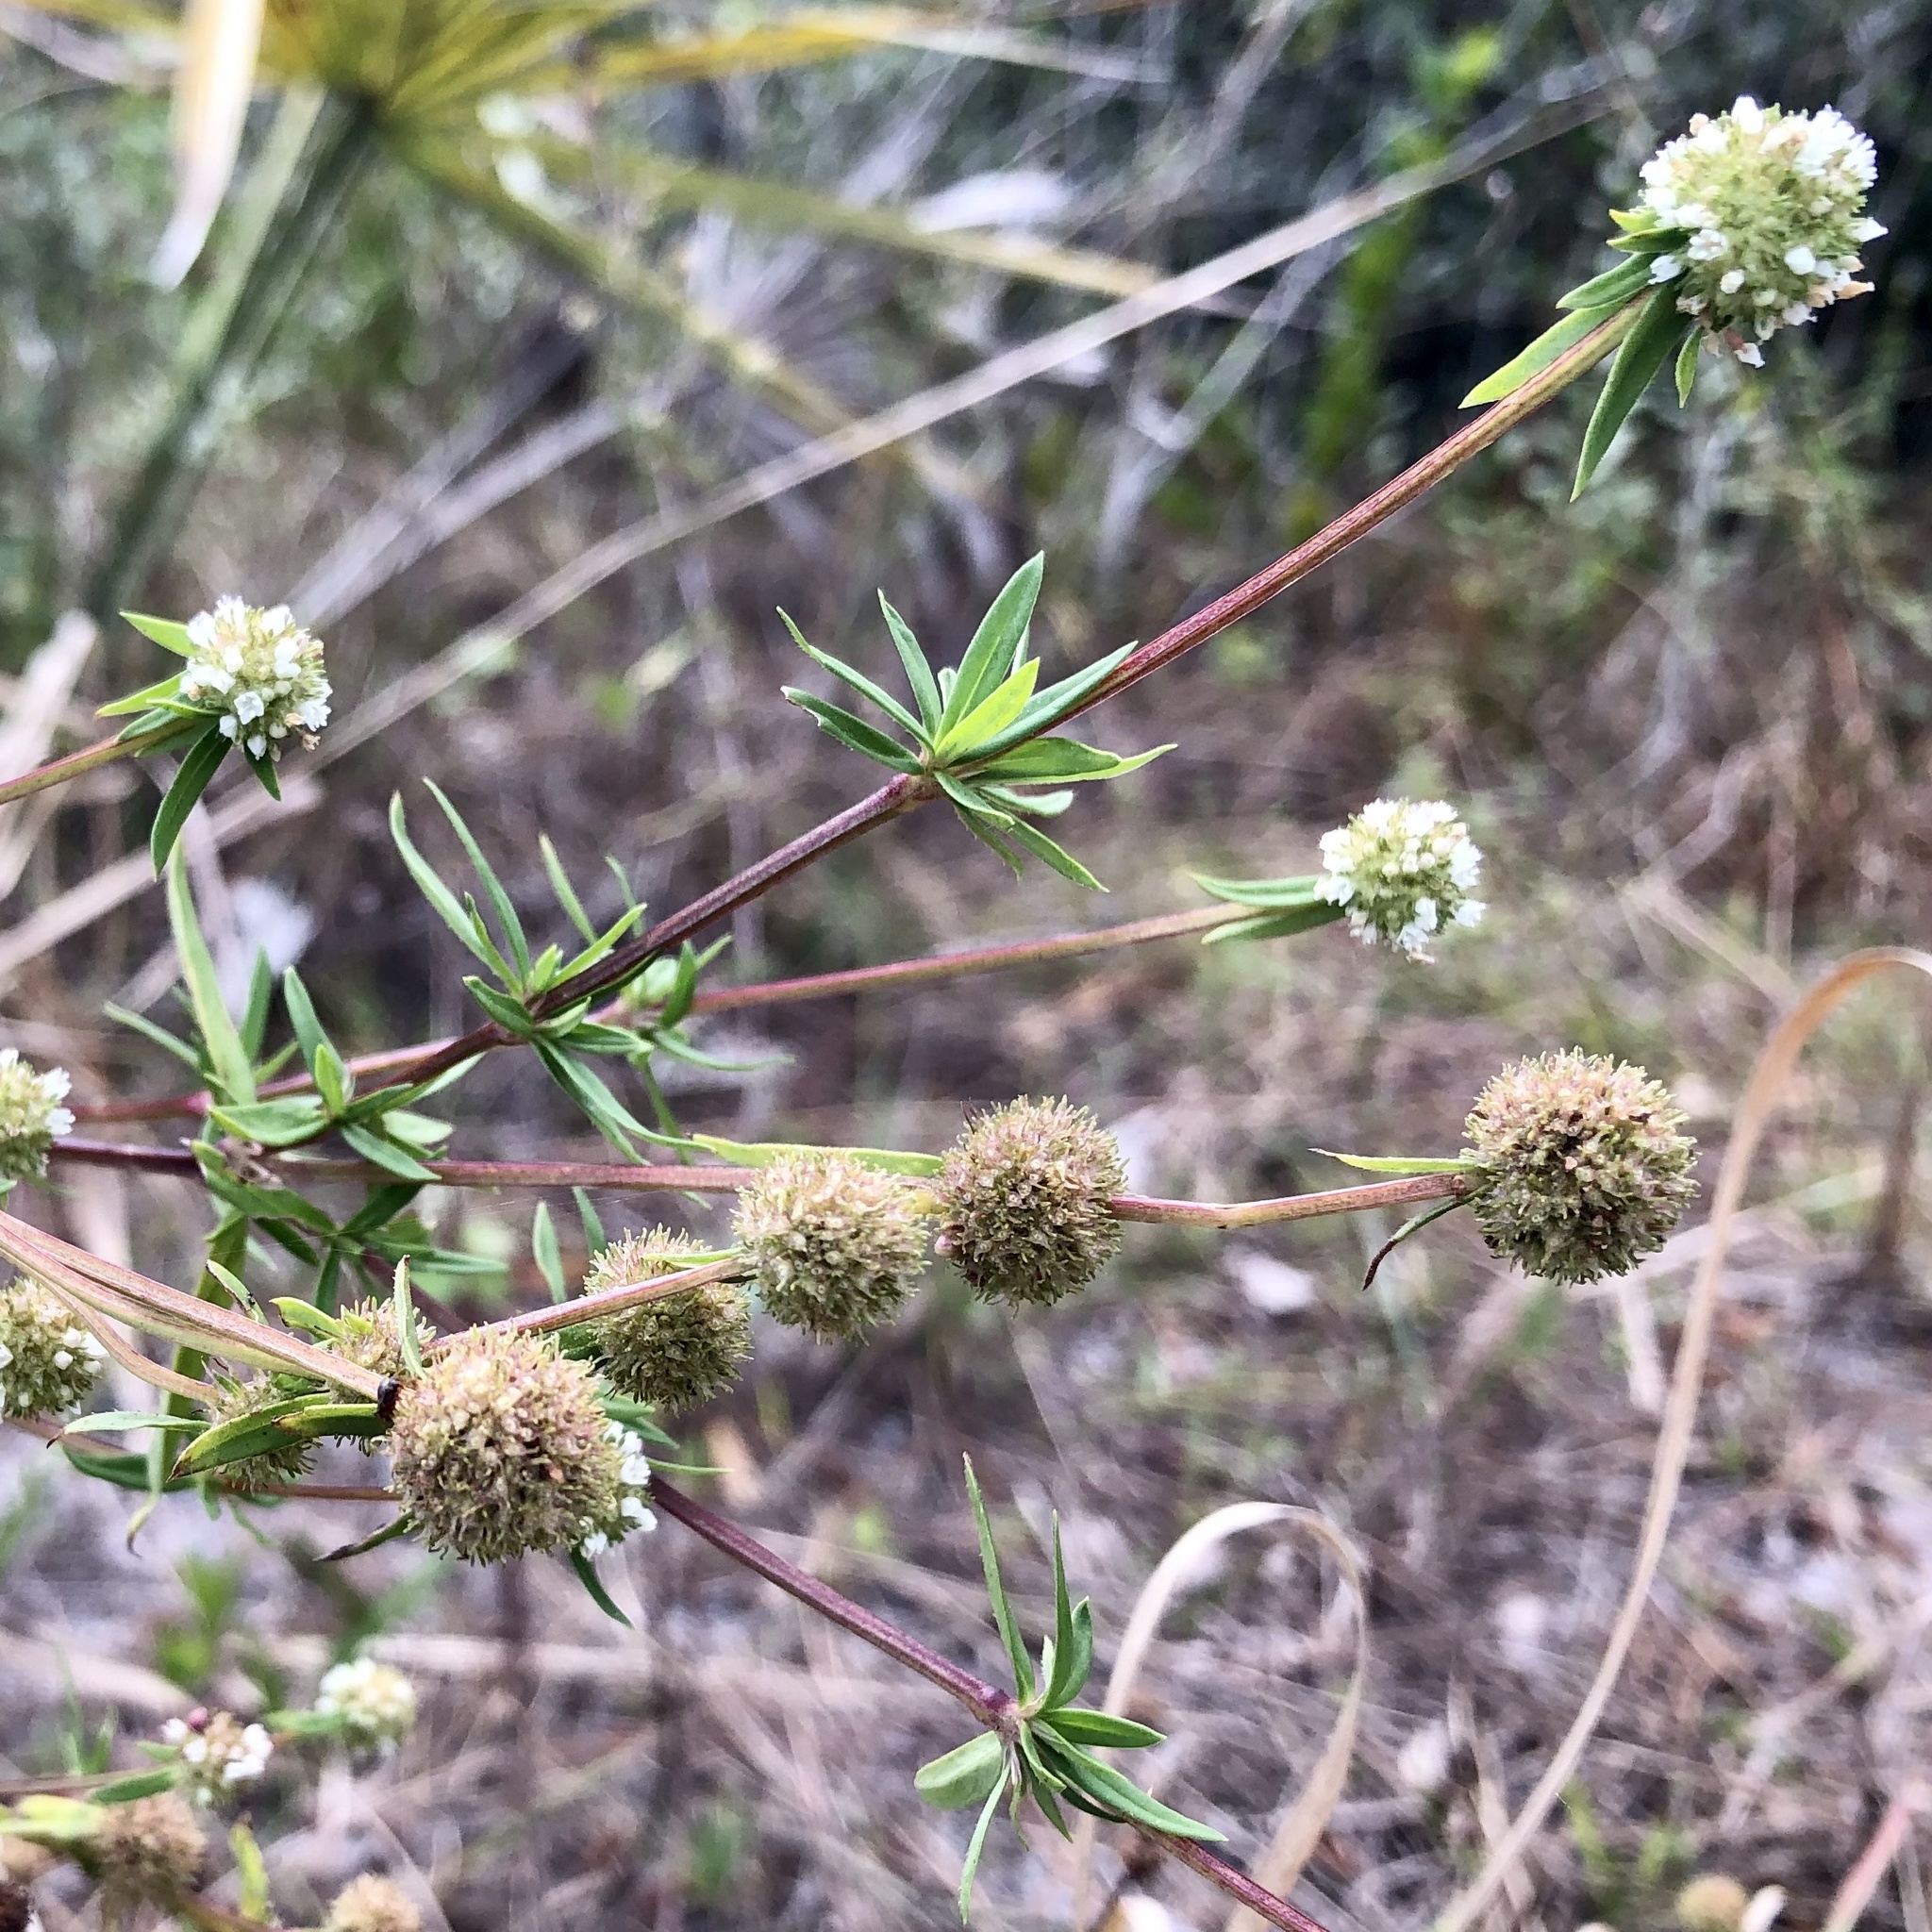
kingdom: Plantae
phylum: Tracheophyta
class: Magnoliopsida
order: Gentianales
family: Rubiaceae
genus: Spermacoce
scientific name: Spermacoce verticillata
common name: Shrubby false buttonweed
